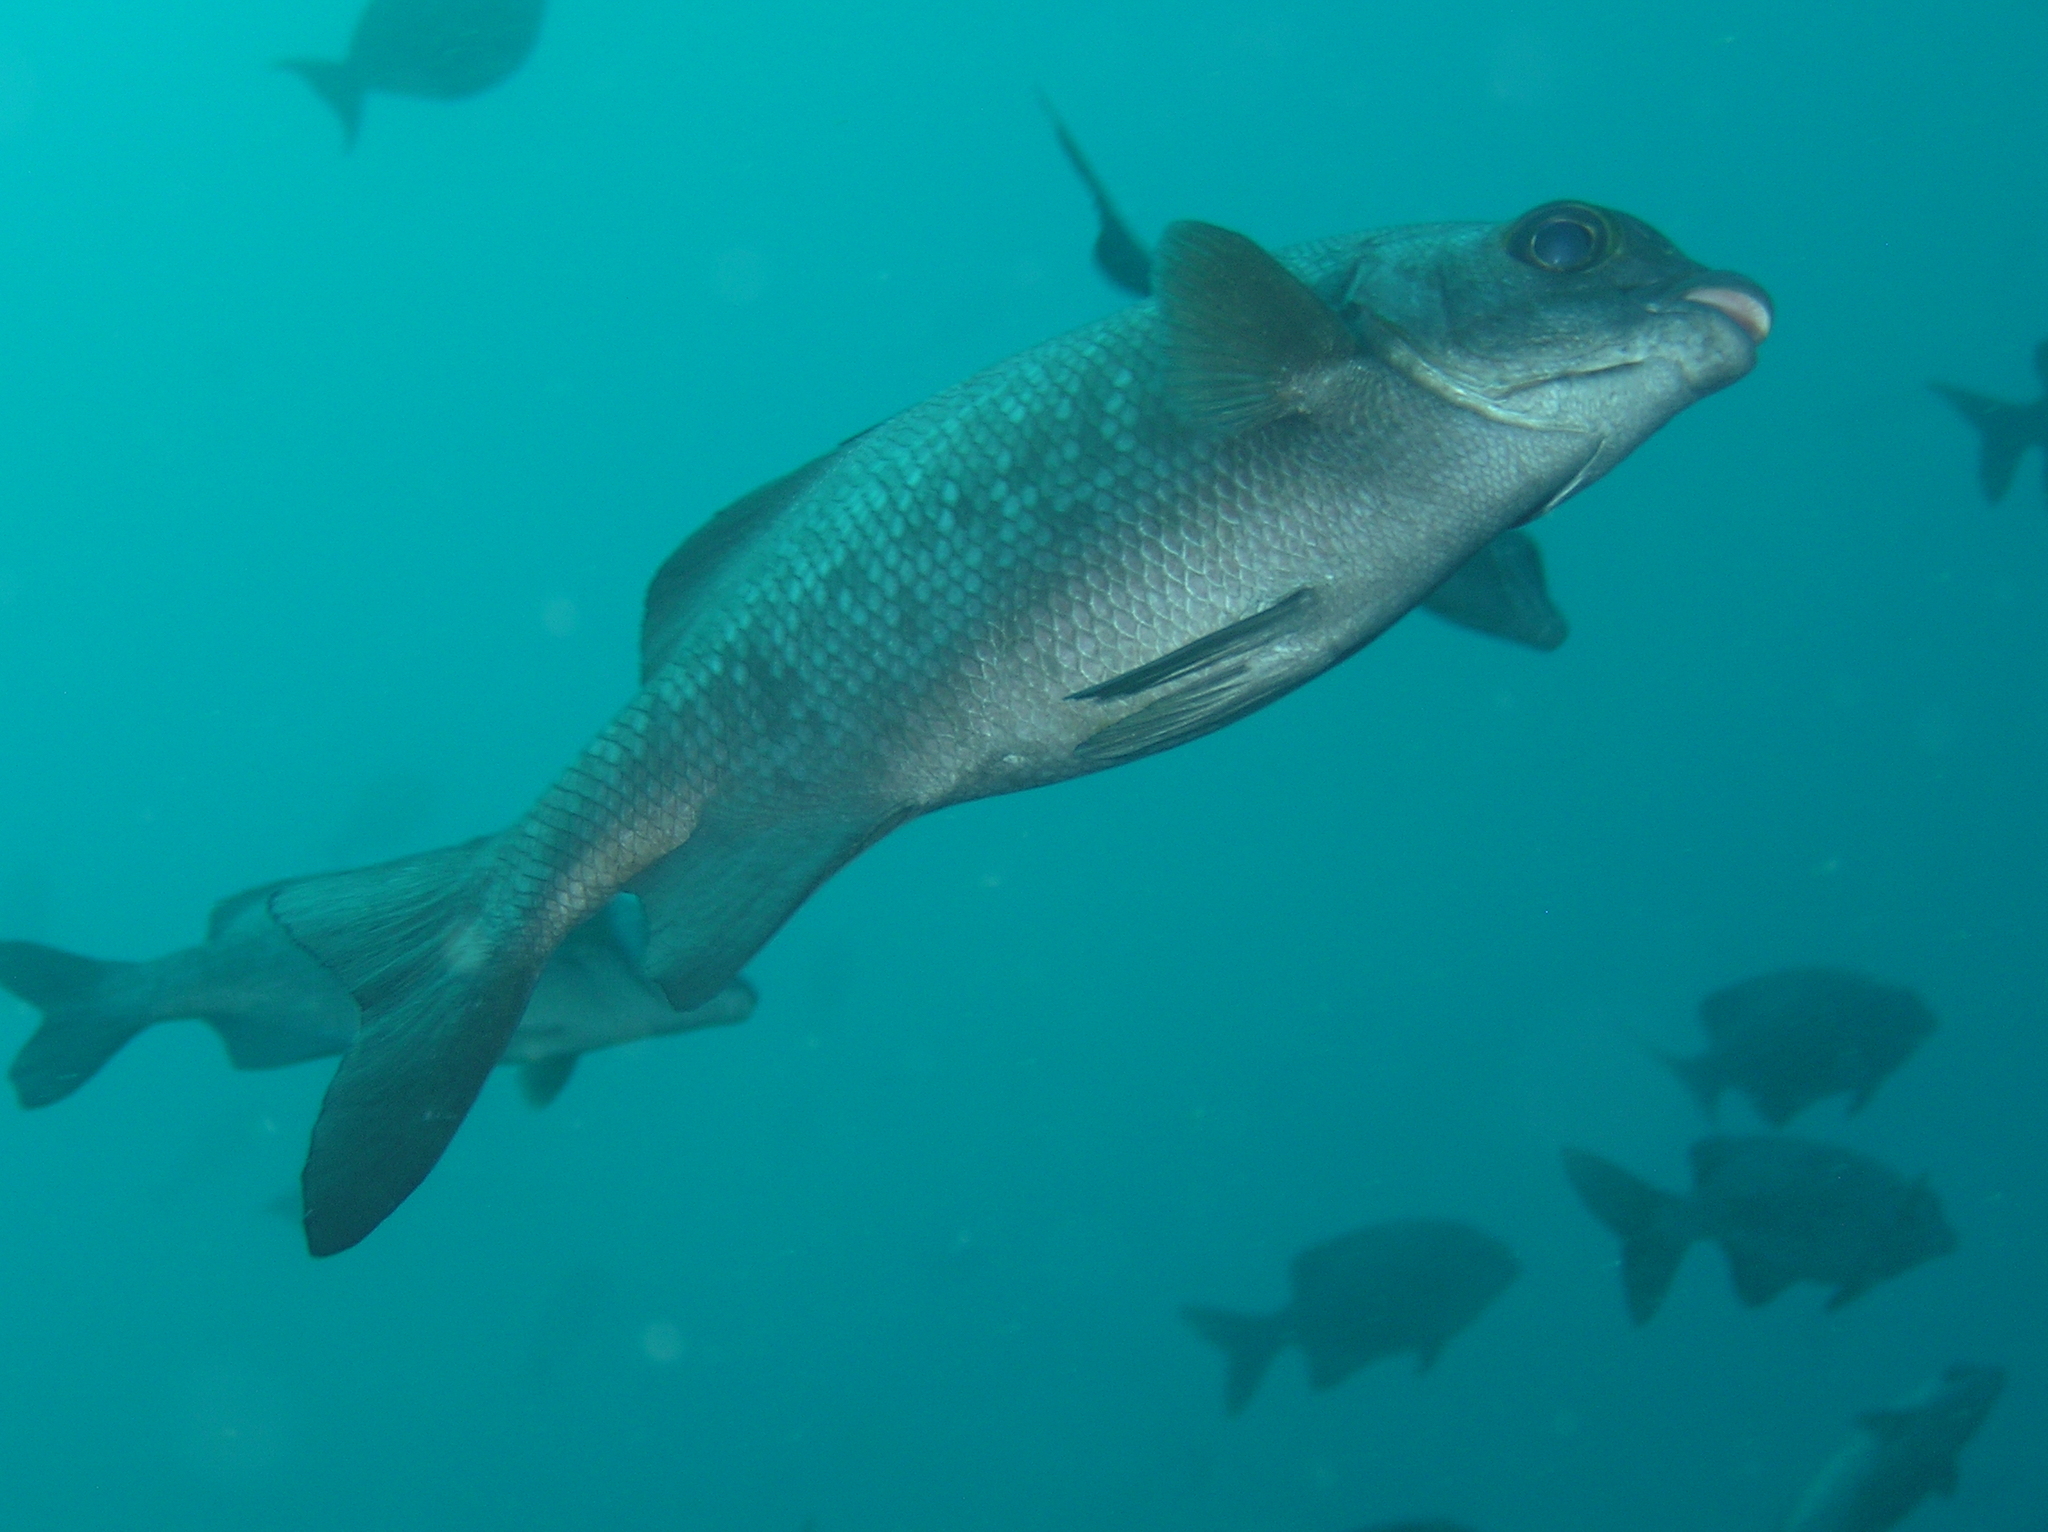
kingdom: Animalia
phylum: Chordata
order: Perciformes
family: Kyphosidae
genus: Kyphosus
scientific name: Kyphosus cinerascens
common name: Topsail drummer
